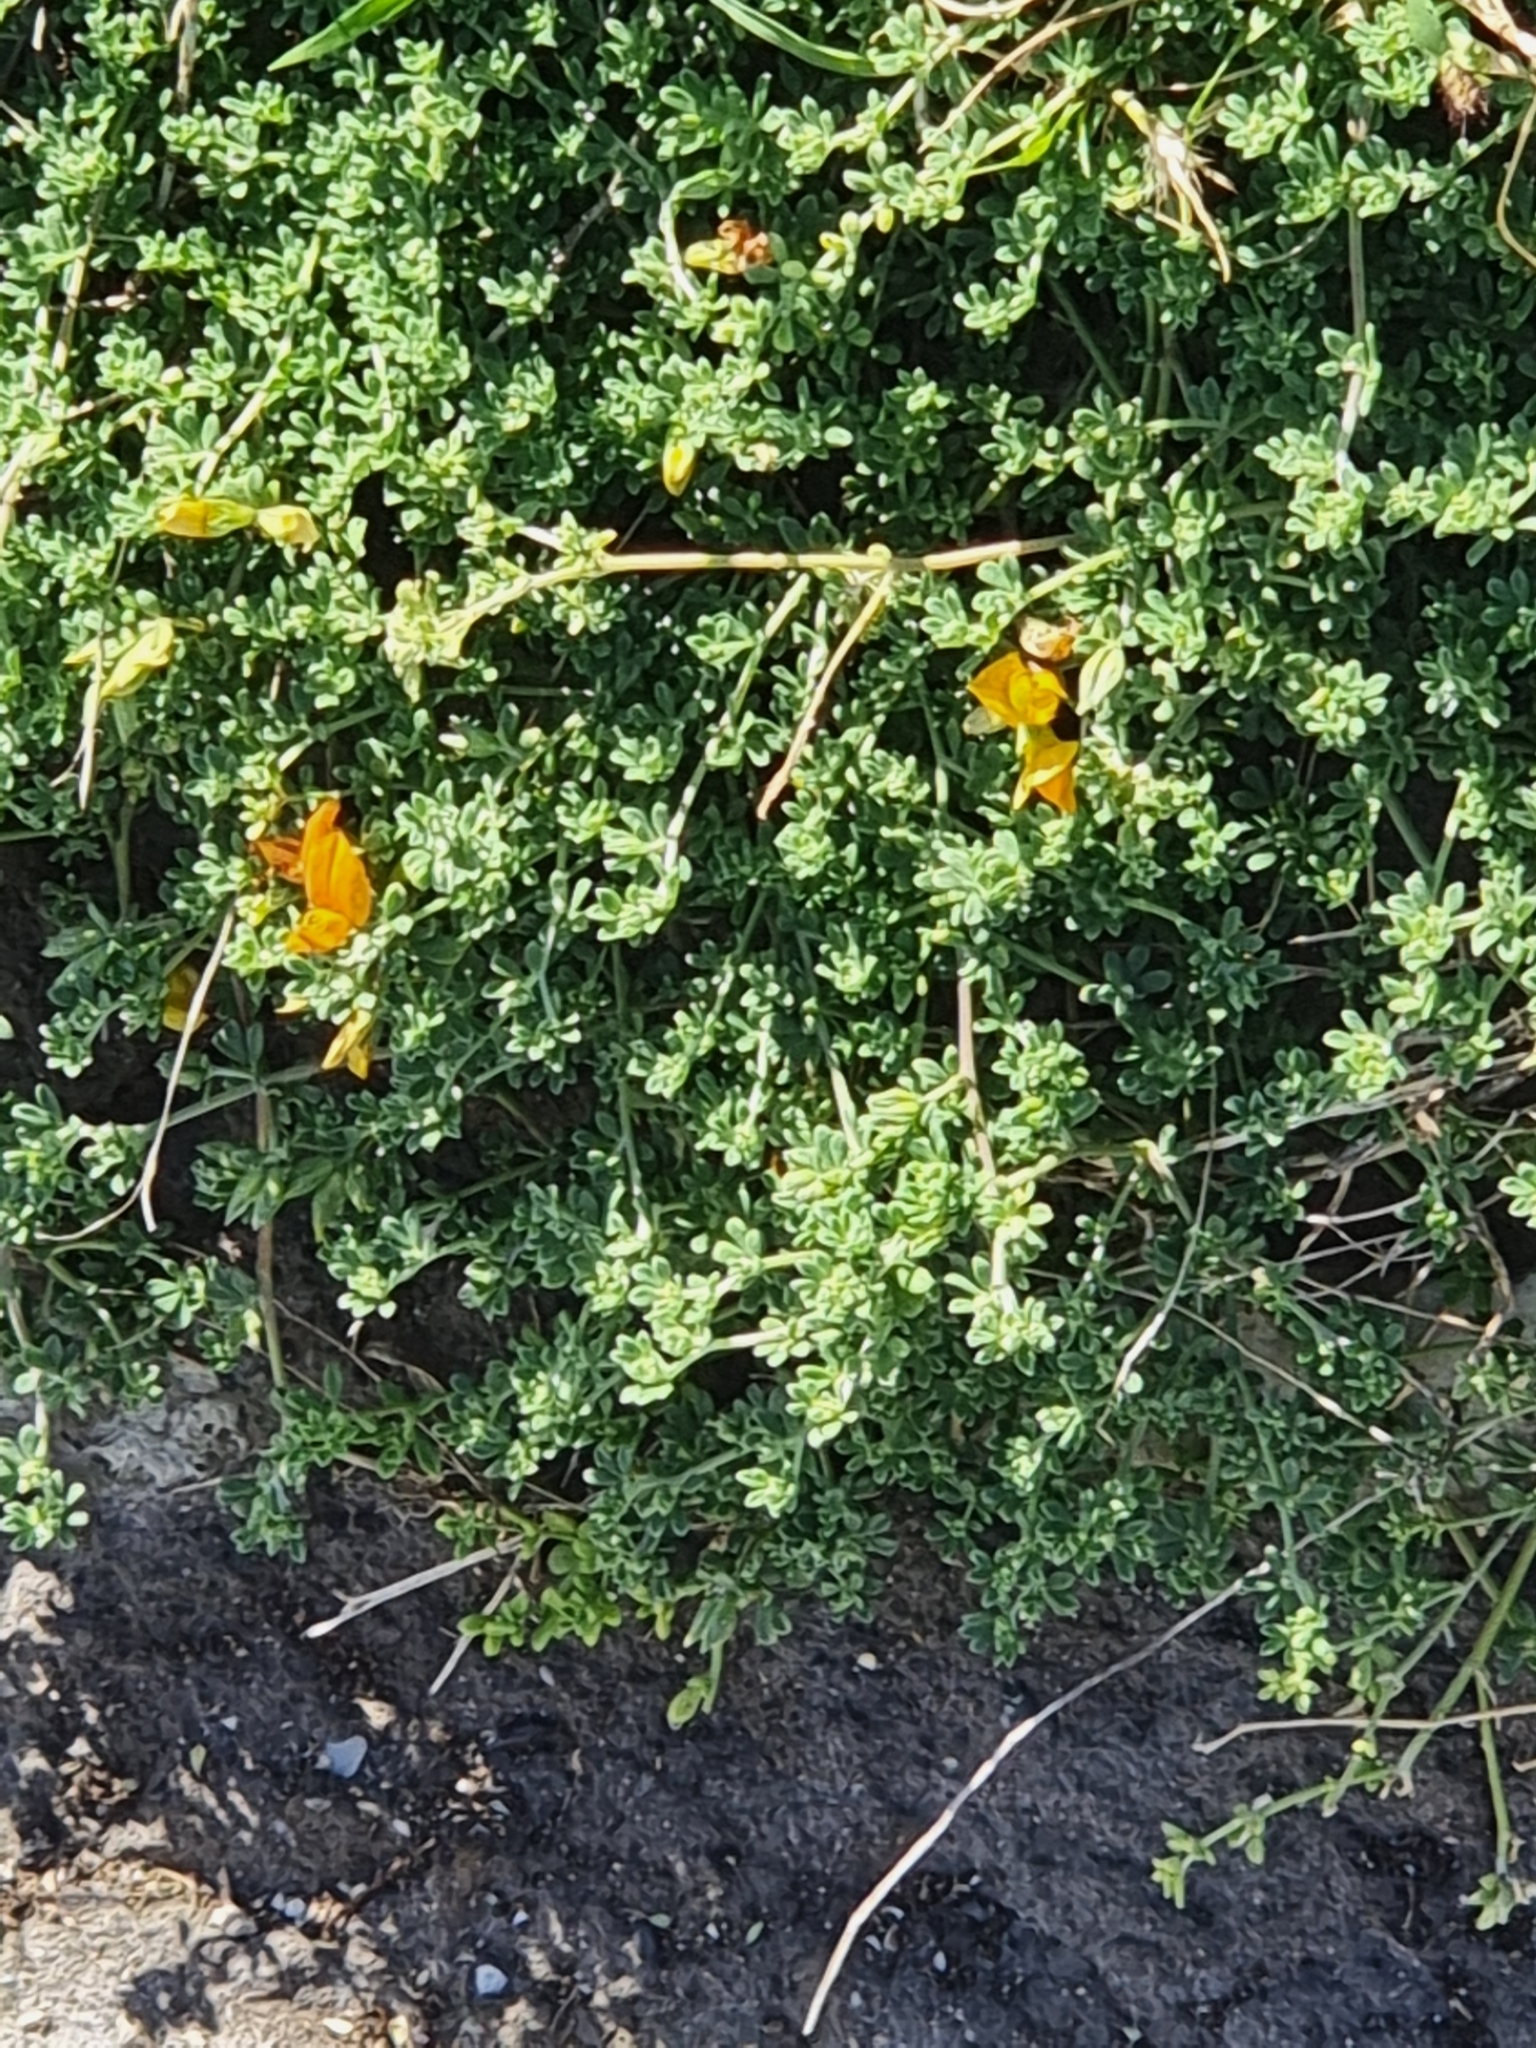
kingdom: Plantae
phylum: Tracheophyta
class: Magnoliopsida
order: Fabales
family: Fabaceae
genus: Lotus
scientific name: Lotus glaucus
